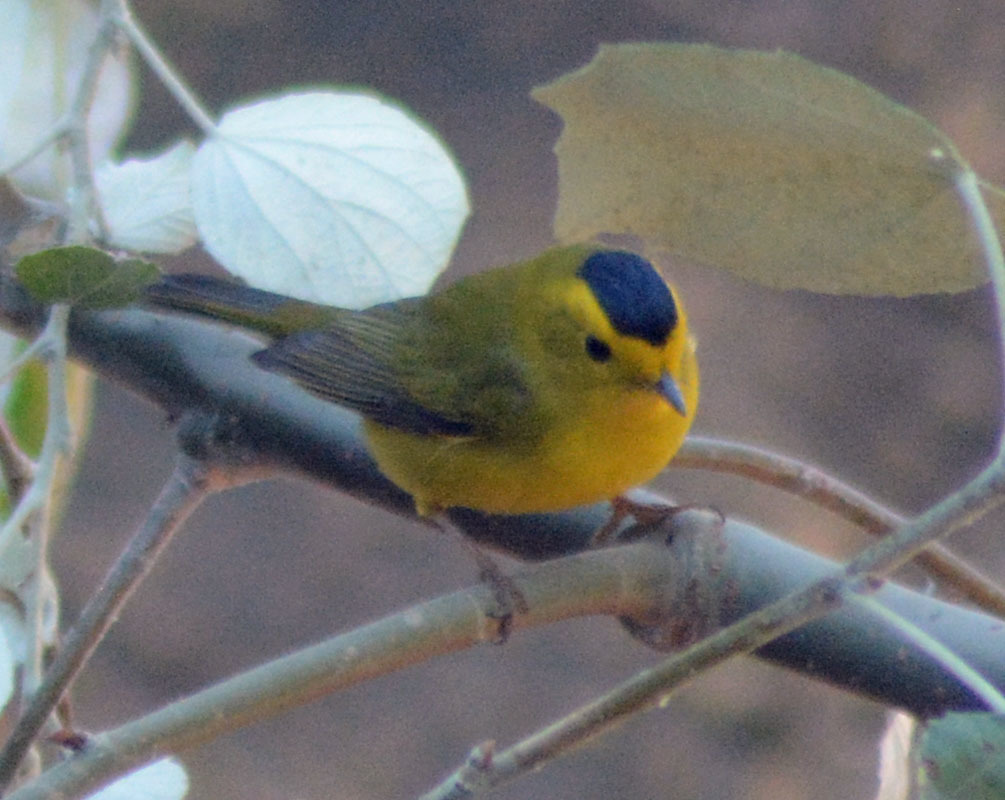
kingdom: Animalia
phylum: Chordata
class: Aves
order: Passeriformes
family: Parulidae
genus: Cardellina
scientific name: Cardellina pusilla
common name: Wilson's warbler
